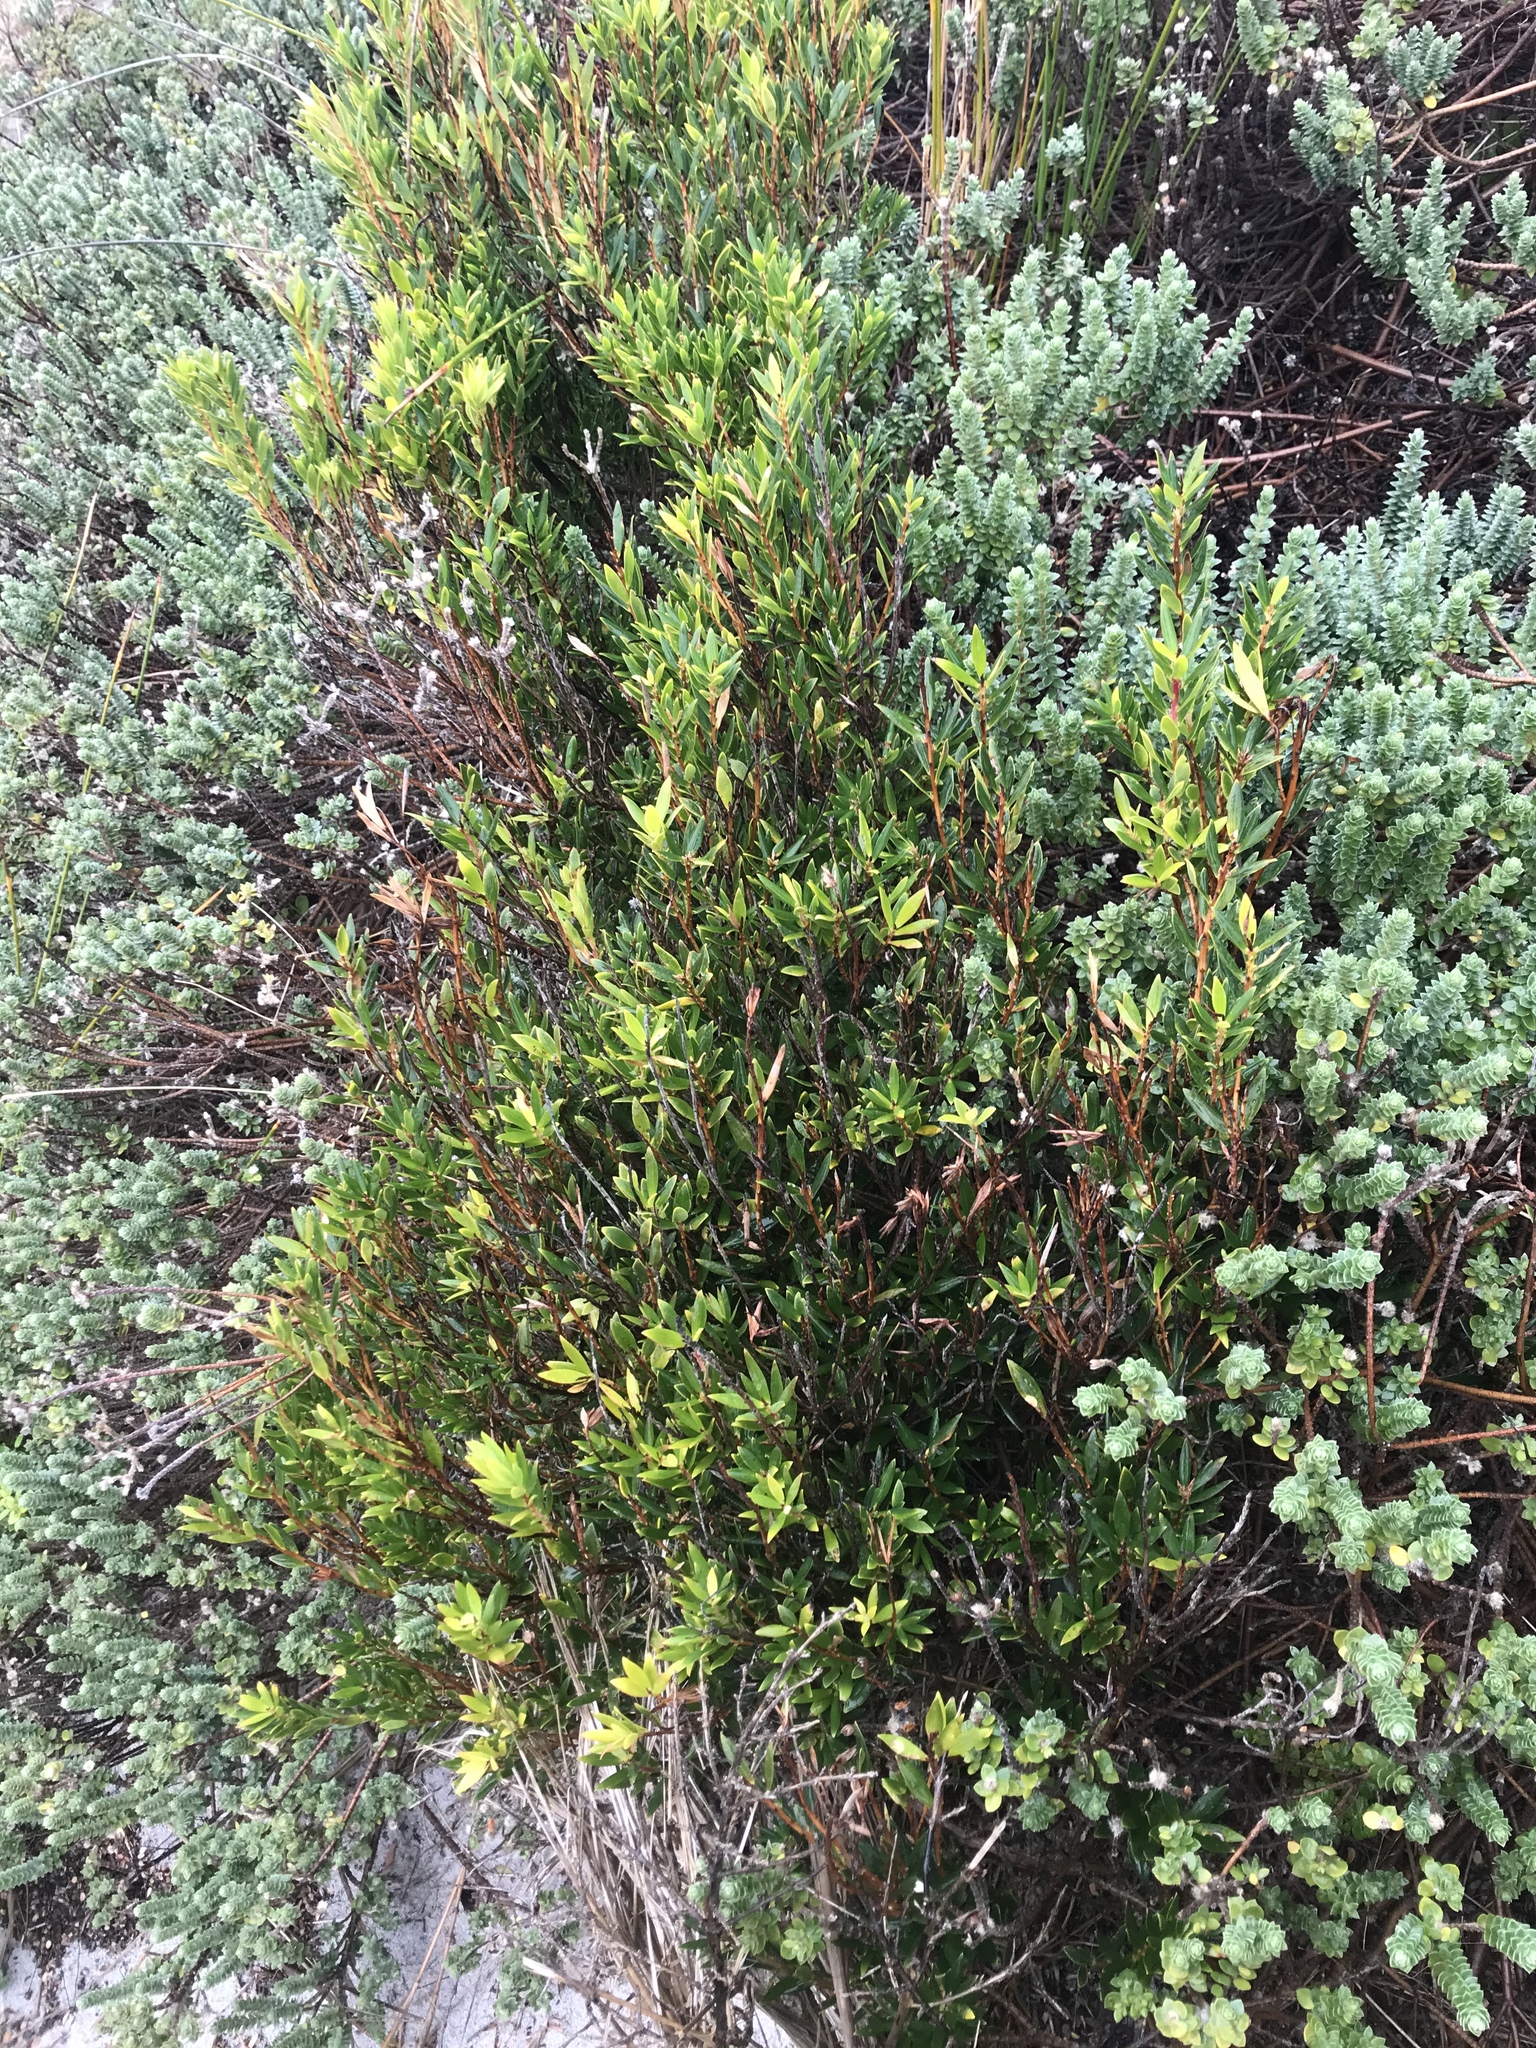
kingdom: Plantae
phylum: Tracheophyta
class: Magnoliopsida
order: Ericales
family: Ericaceae
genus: Leptecophylla
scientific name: Leptecophylla parvifolia
